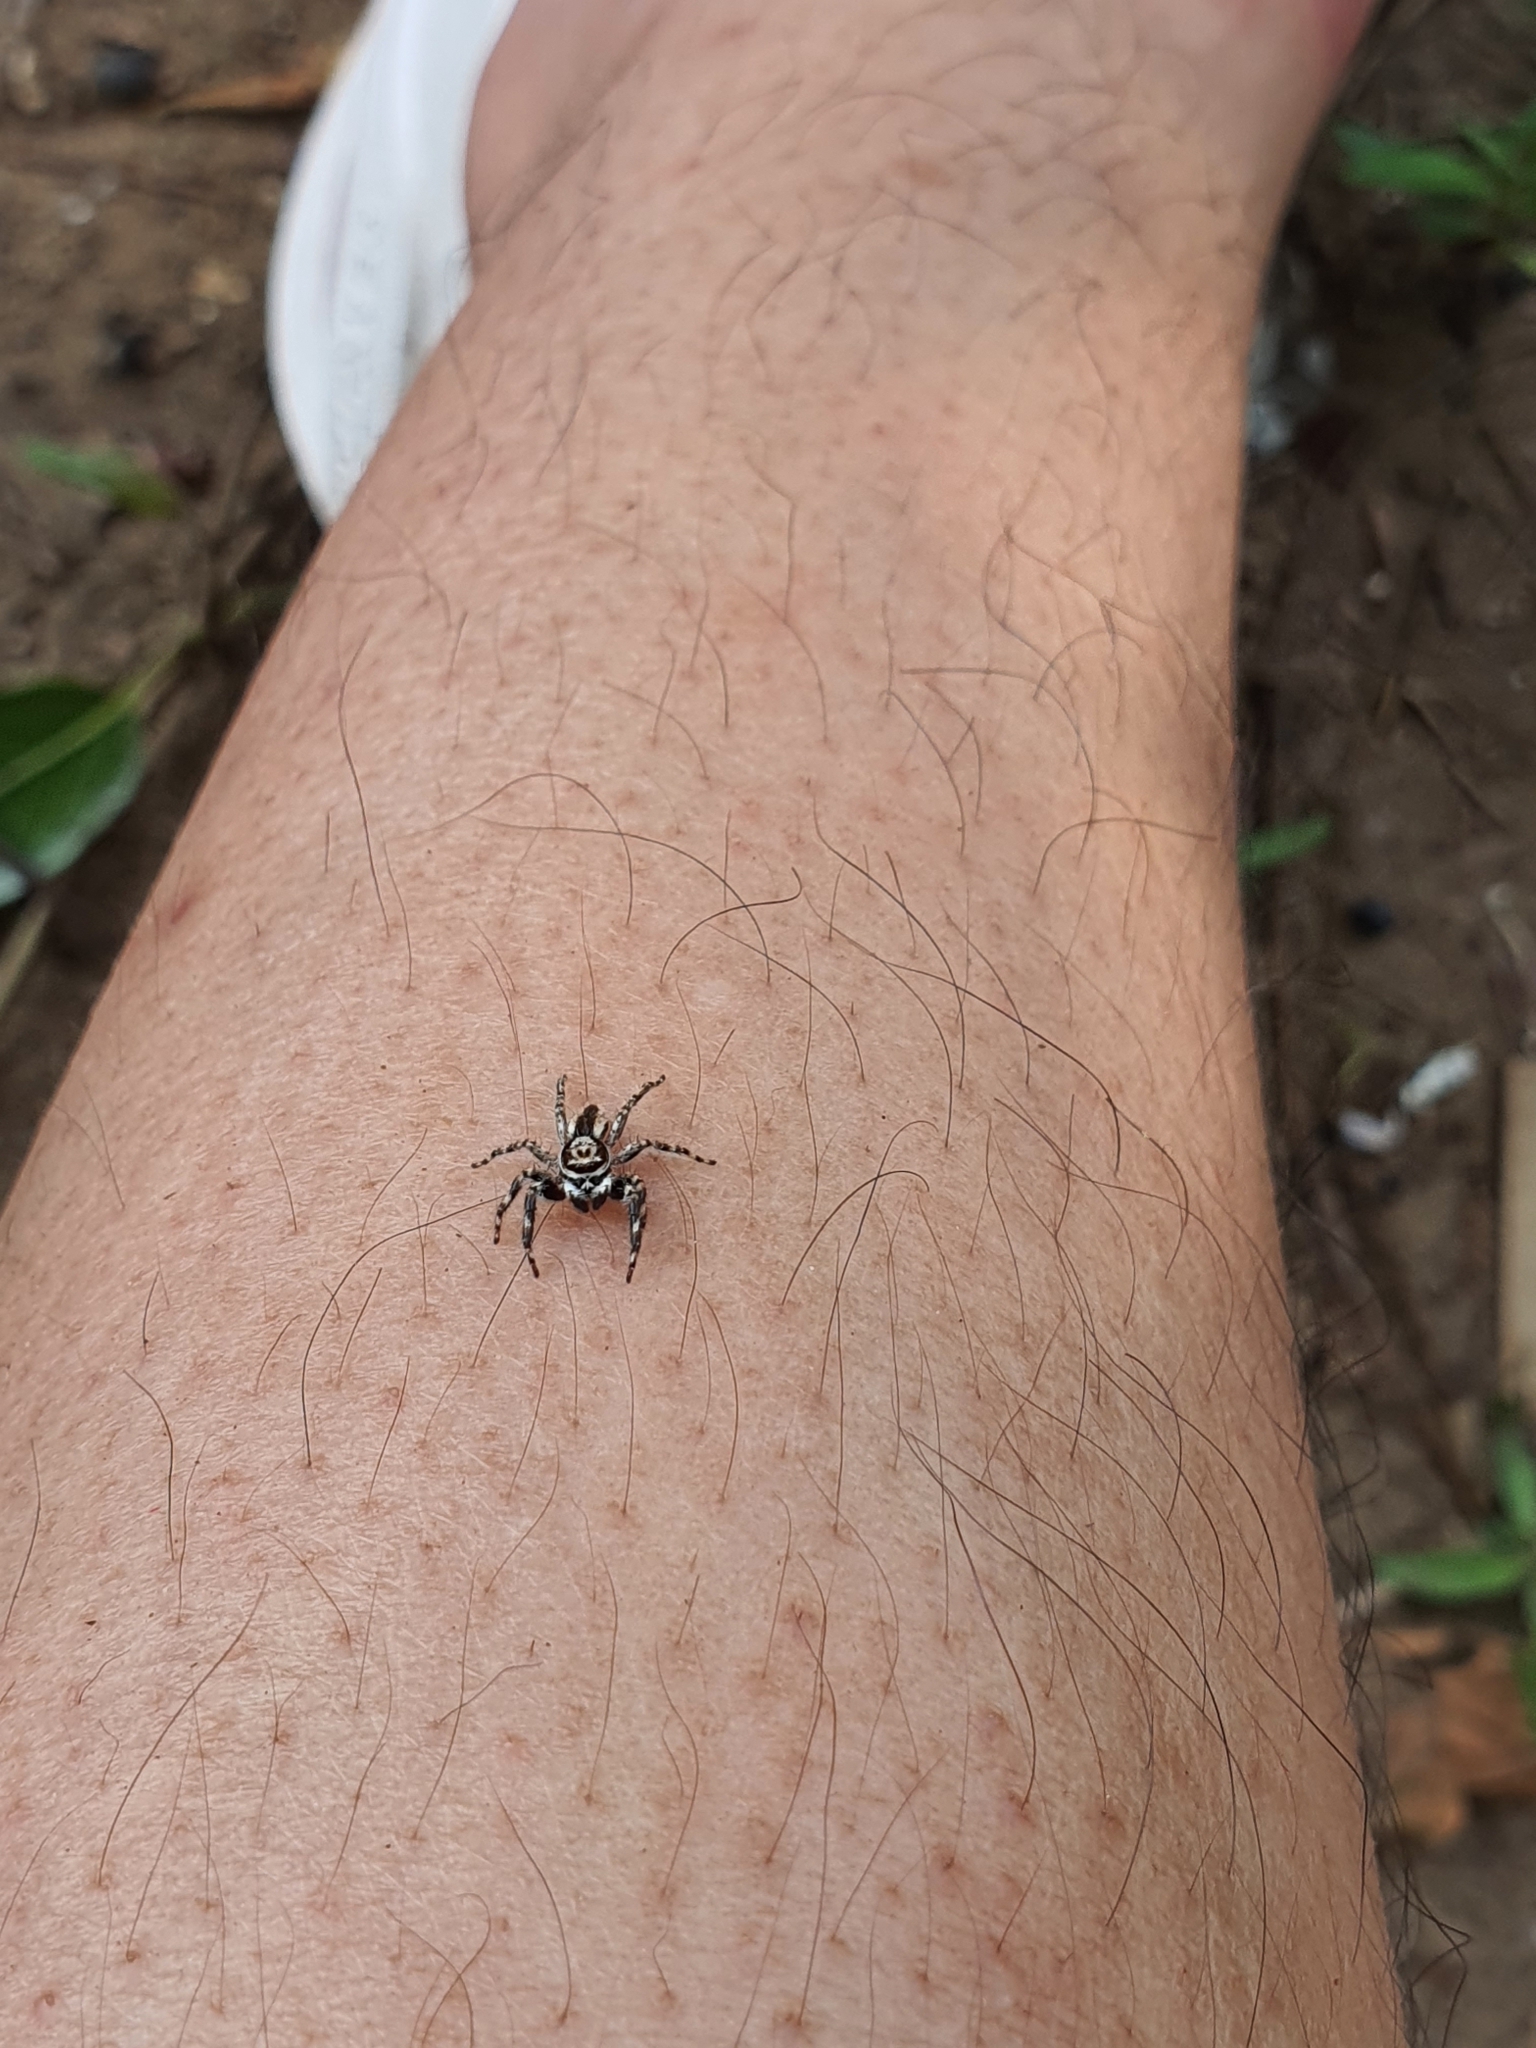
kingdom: Animalia
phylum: Arthropoda
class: Arachnida
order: Araneae
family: Salticidae
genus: Menemerus
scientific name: Menemerus bivittatus
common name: Gray wall jumper
